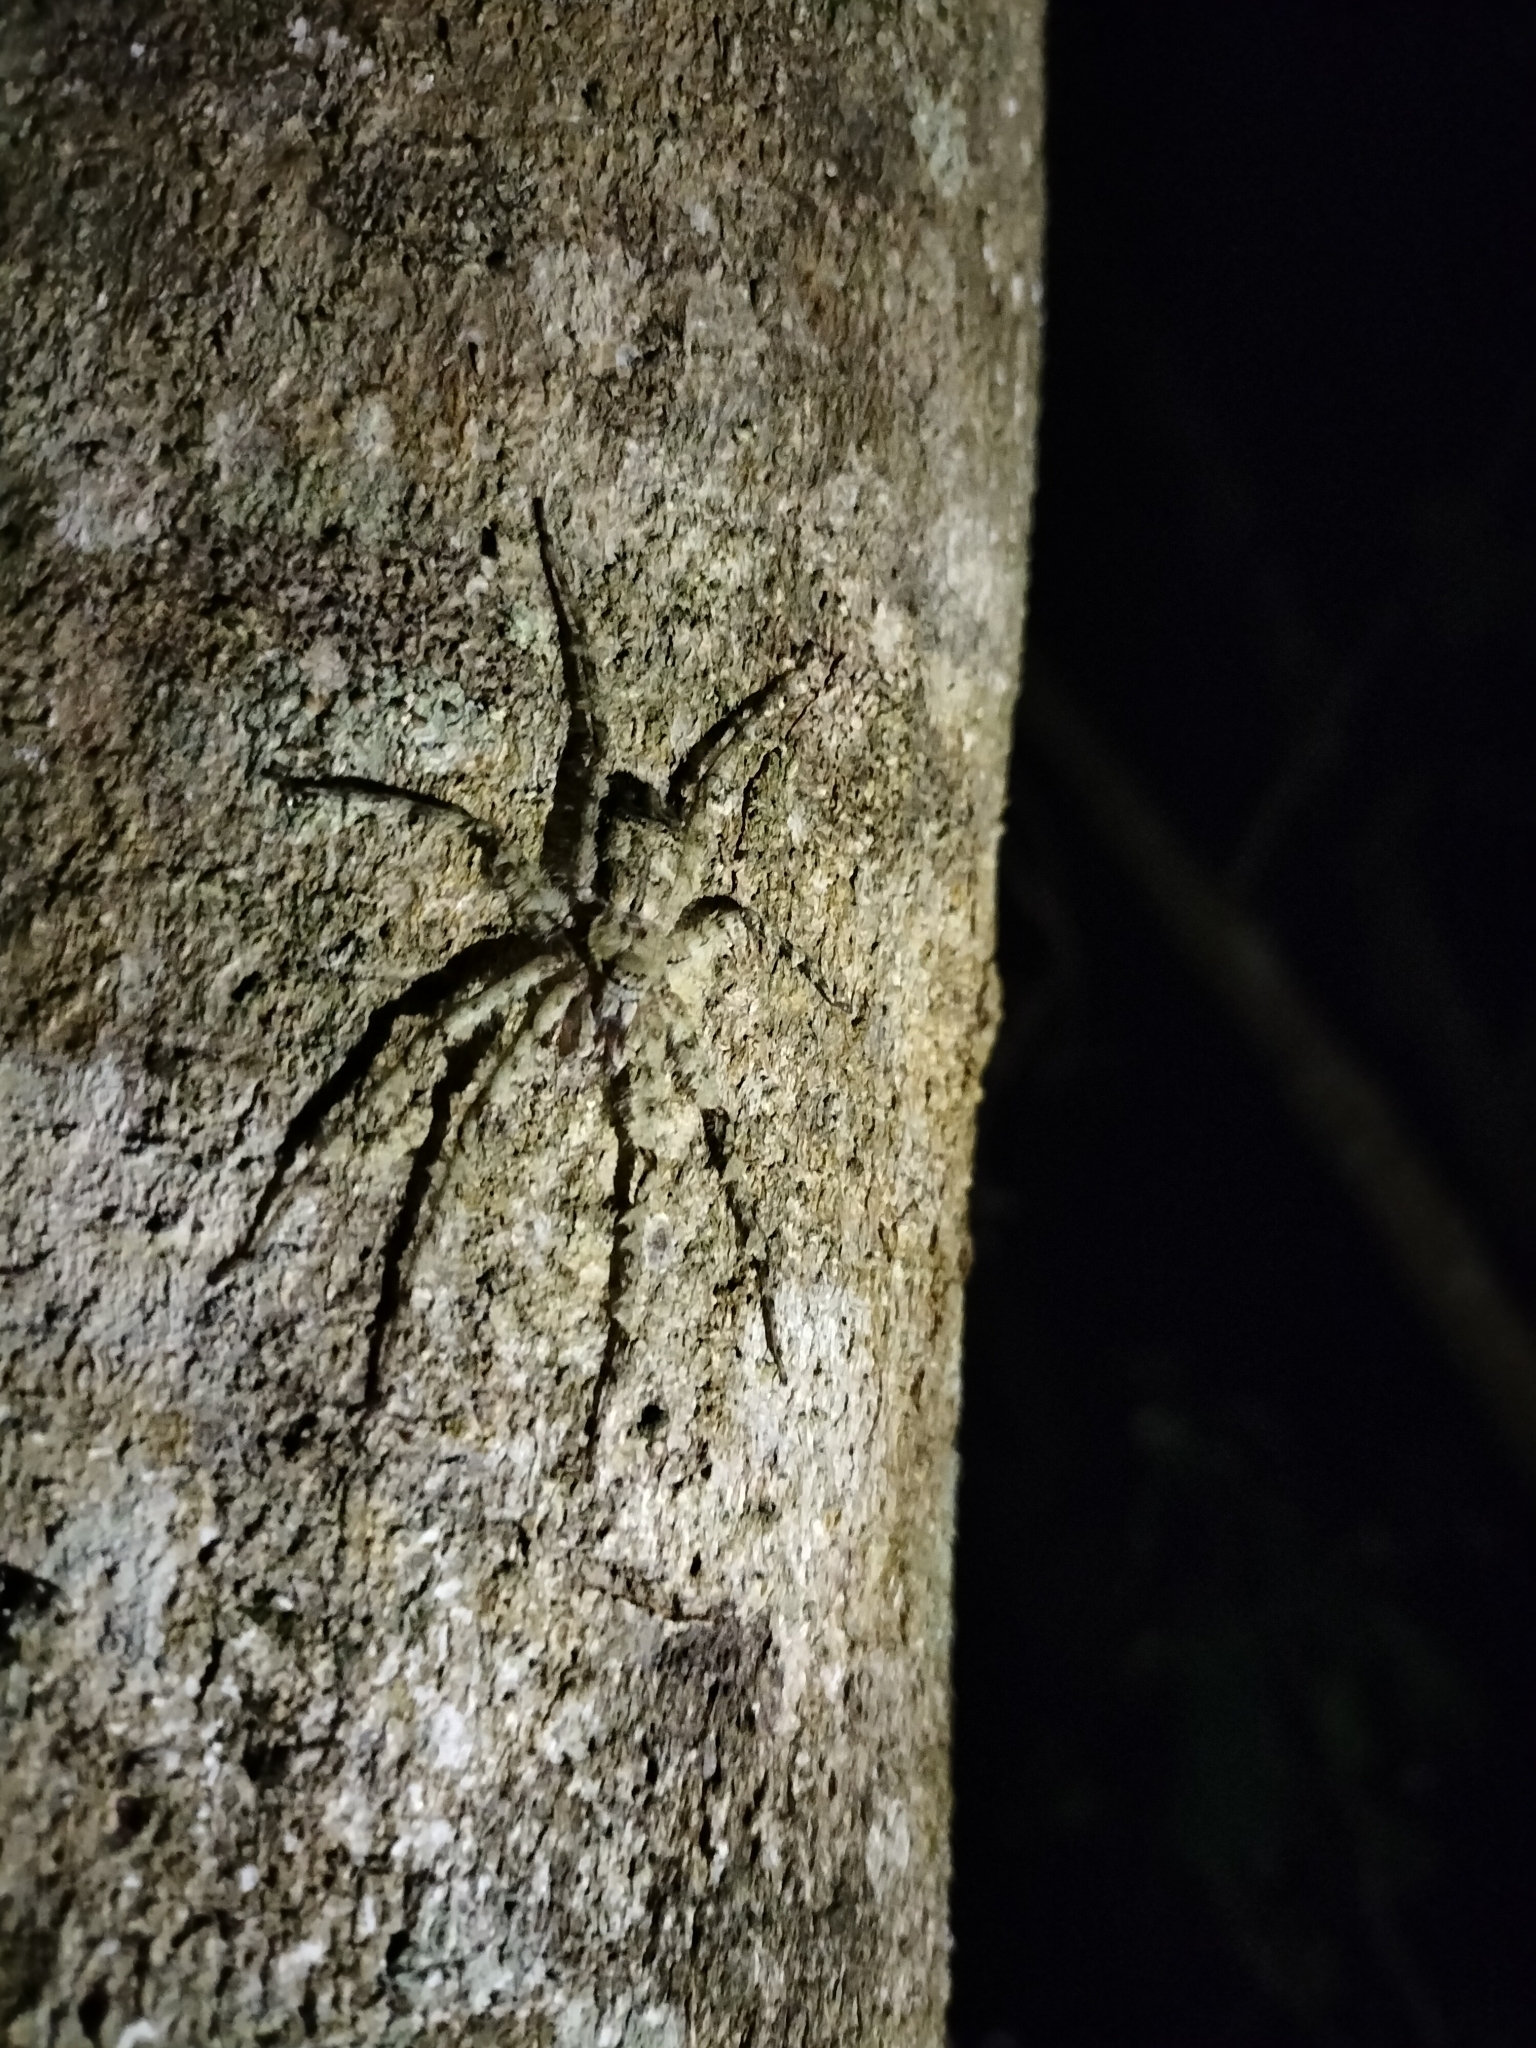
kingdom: Animalia
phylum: Arthropoda
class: Arachnida
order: Araneae
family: Sparassidae
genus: Pandercetes
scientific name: Pandercetes gracilis
